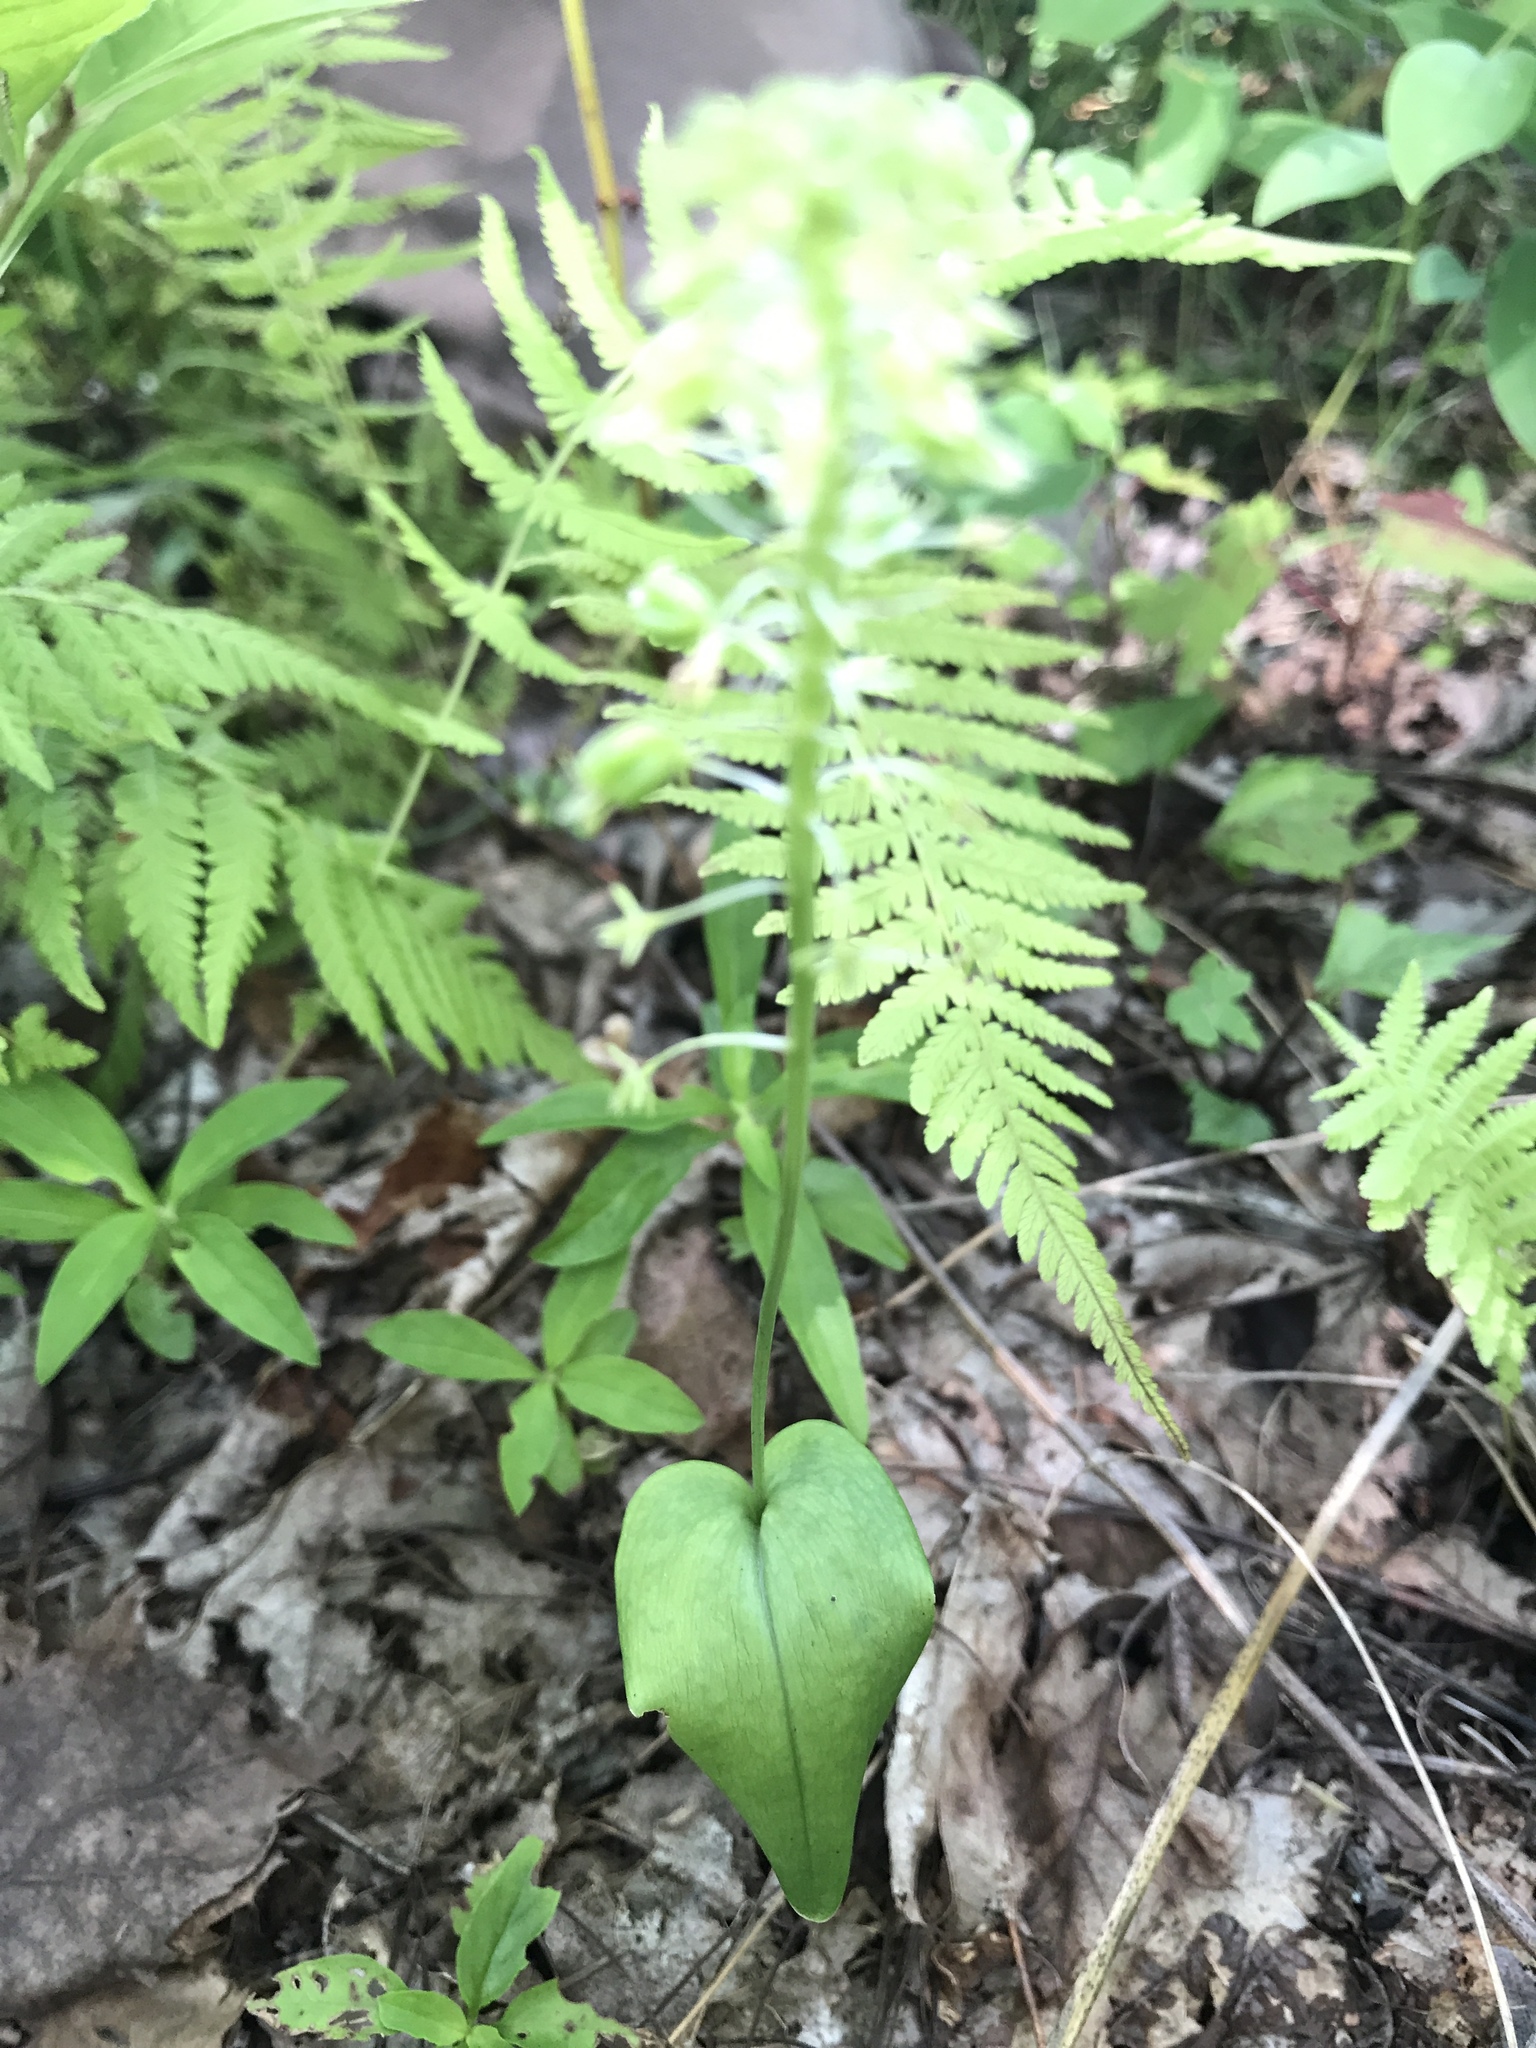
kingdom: Plantae
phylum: Tracheophyta
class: Liliopsida
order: Asparagales
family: Orchidaceae
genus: Malaxis
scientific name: Malaxis unifolia
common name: Green adder's-mouth
